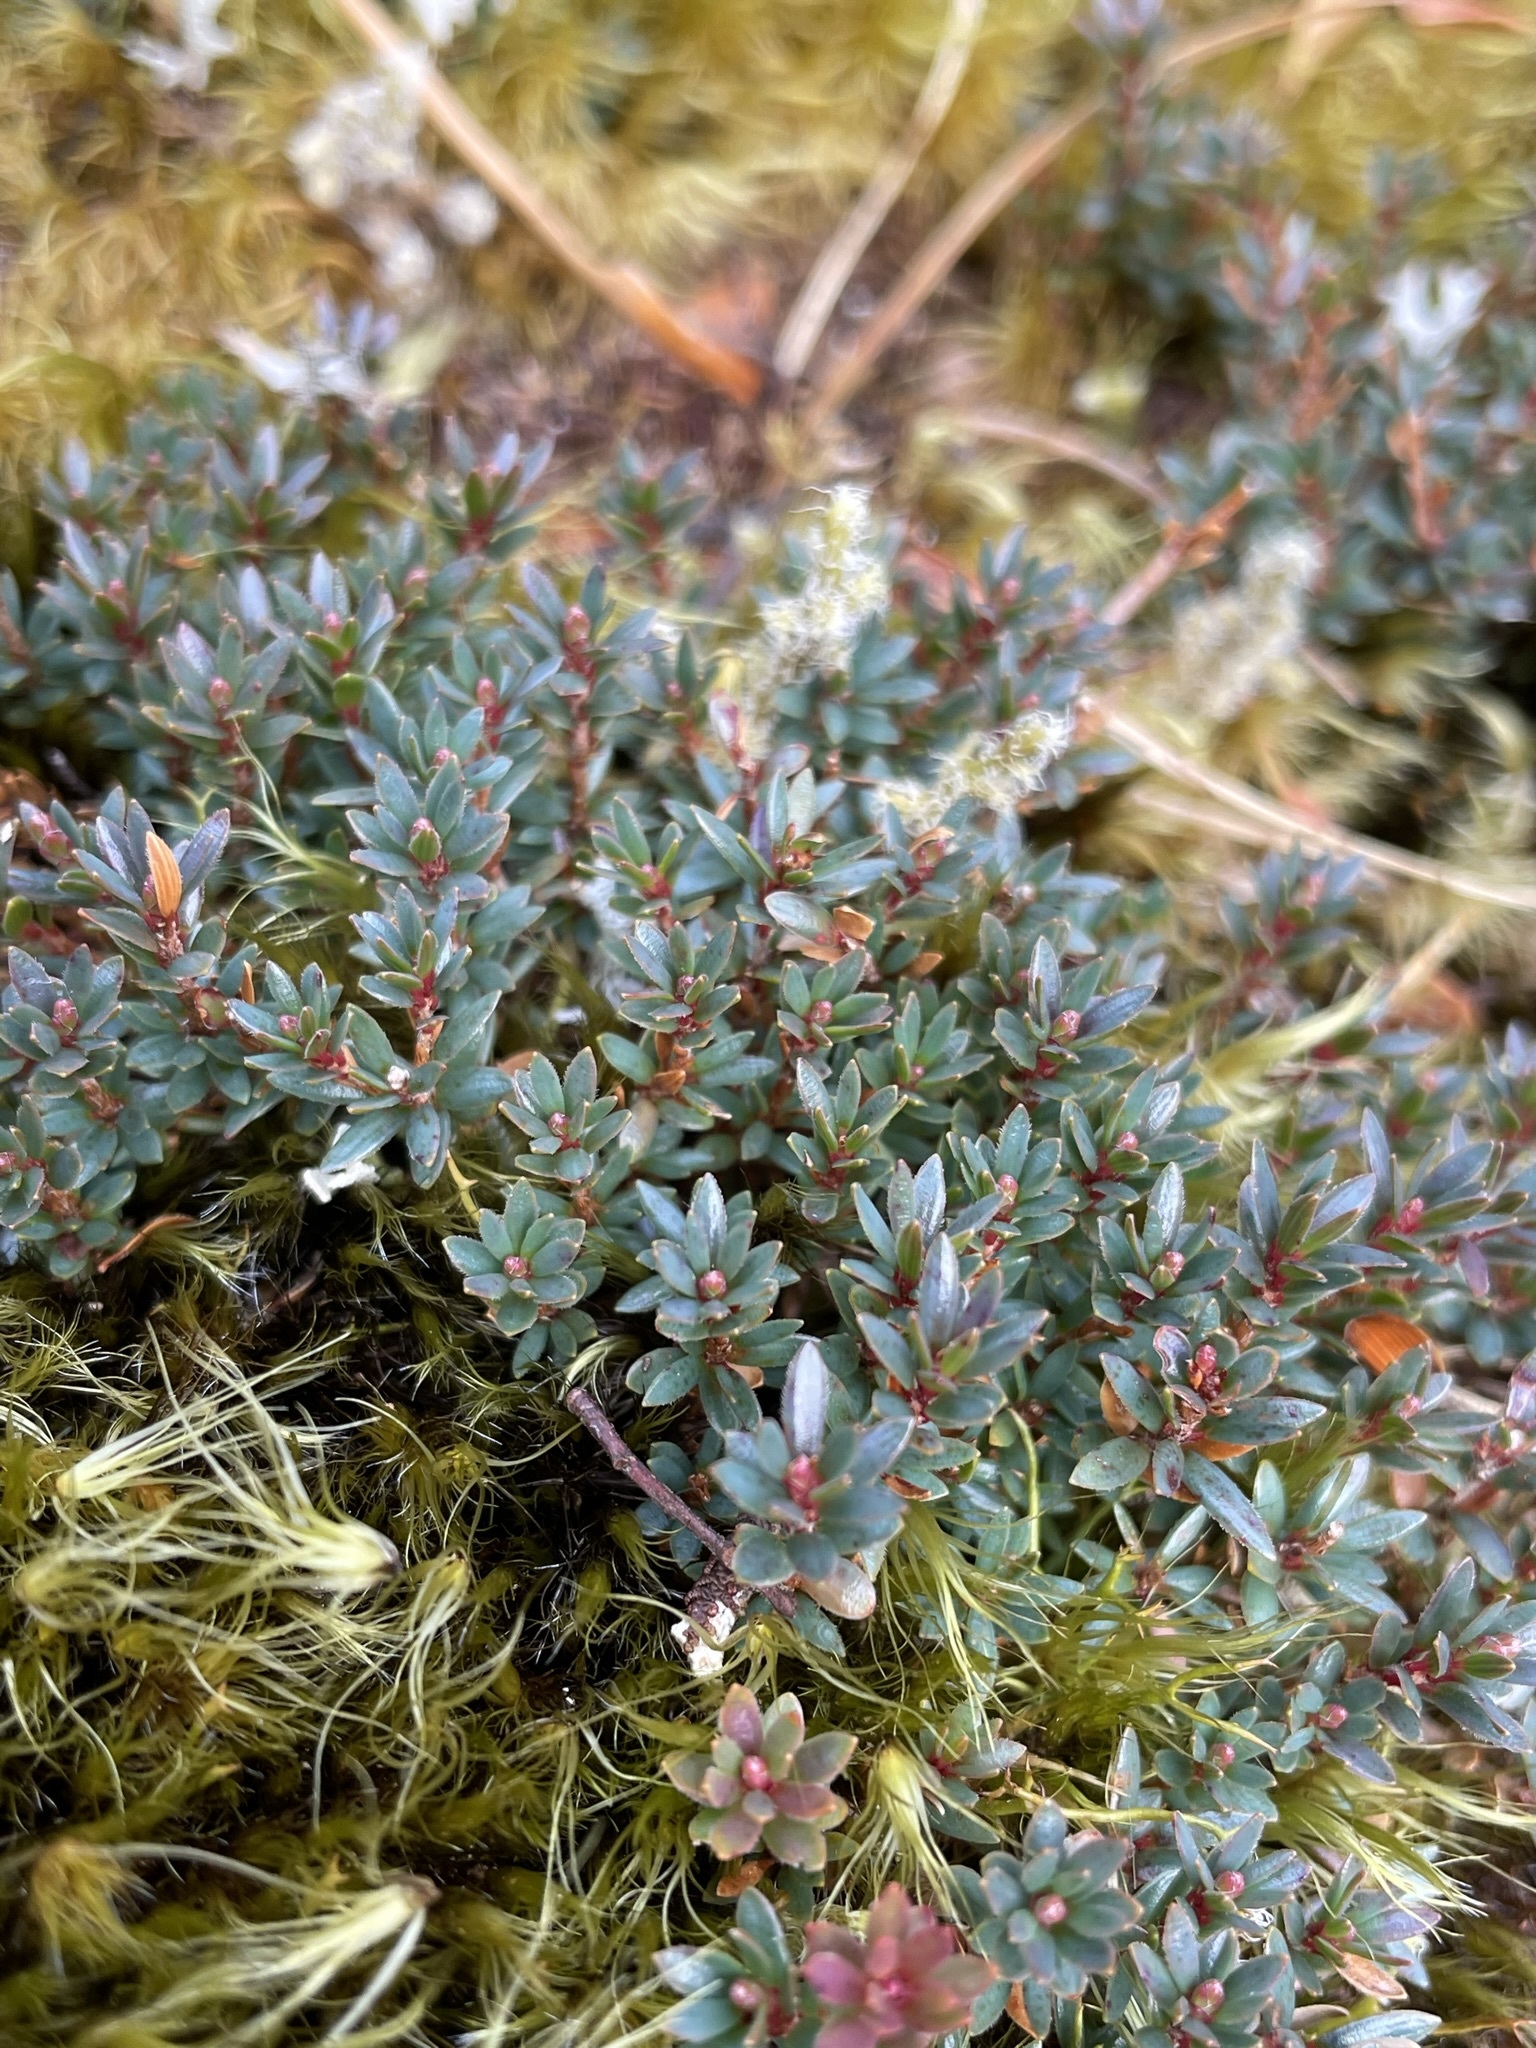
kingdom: Plantae
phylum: Tracheophyta
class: Magnoliopsida
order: Ericales
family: Ericaceae
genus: Pentachondra
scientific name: Pentachondra pumila
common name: Carpet-heath
